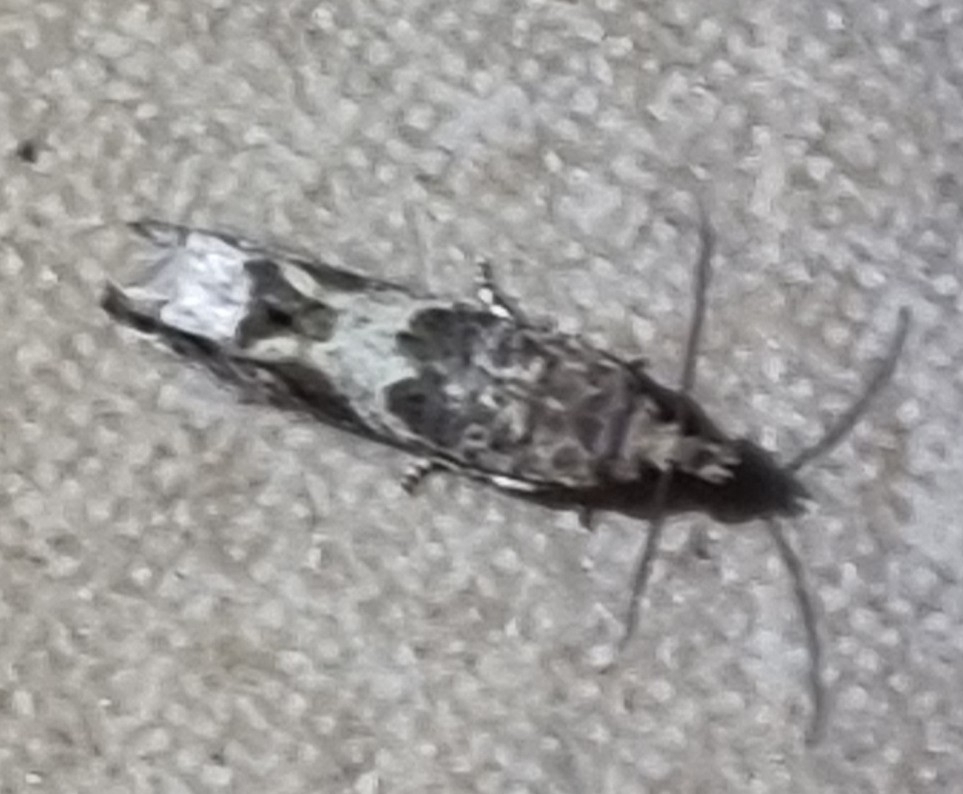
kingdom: Animalia
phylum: Arthropoda
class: Insecta
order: Lepidoptera
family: Tortricidae
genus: Spilonota
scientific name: Spilonota constrictana
